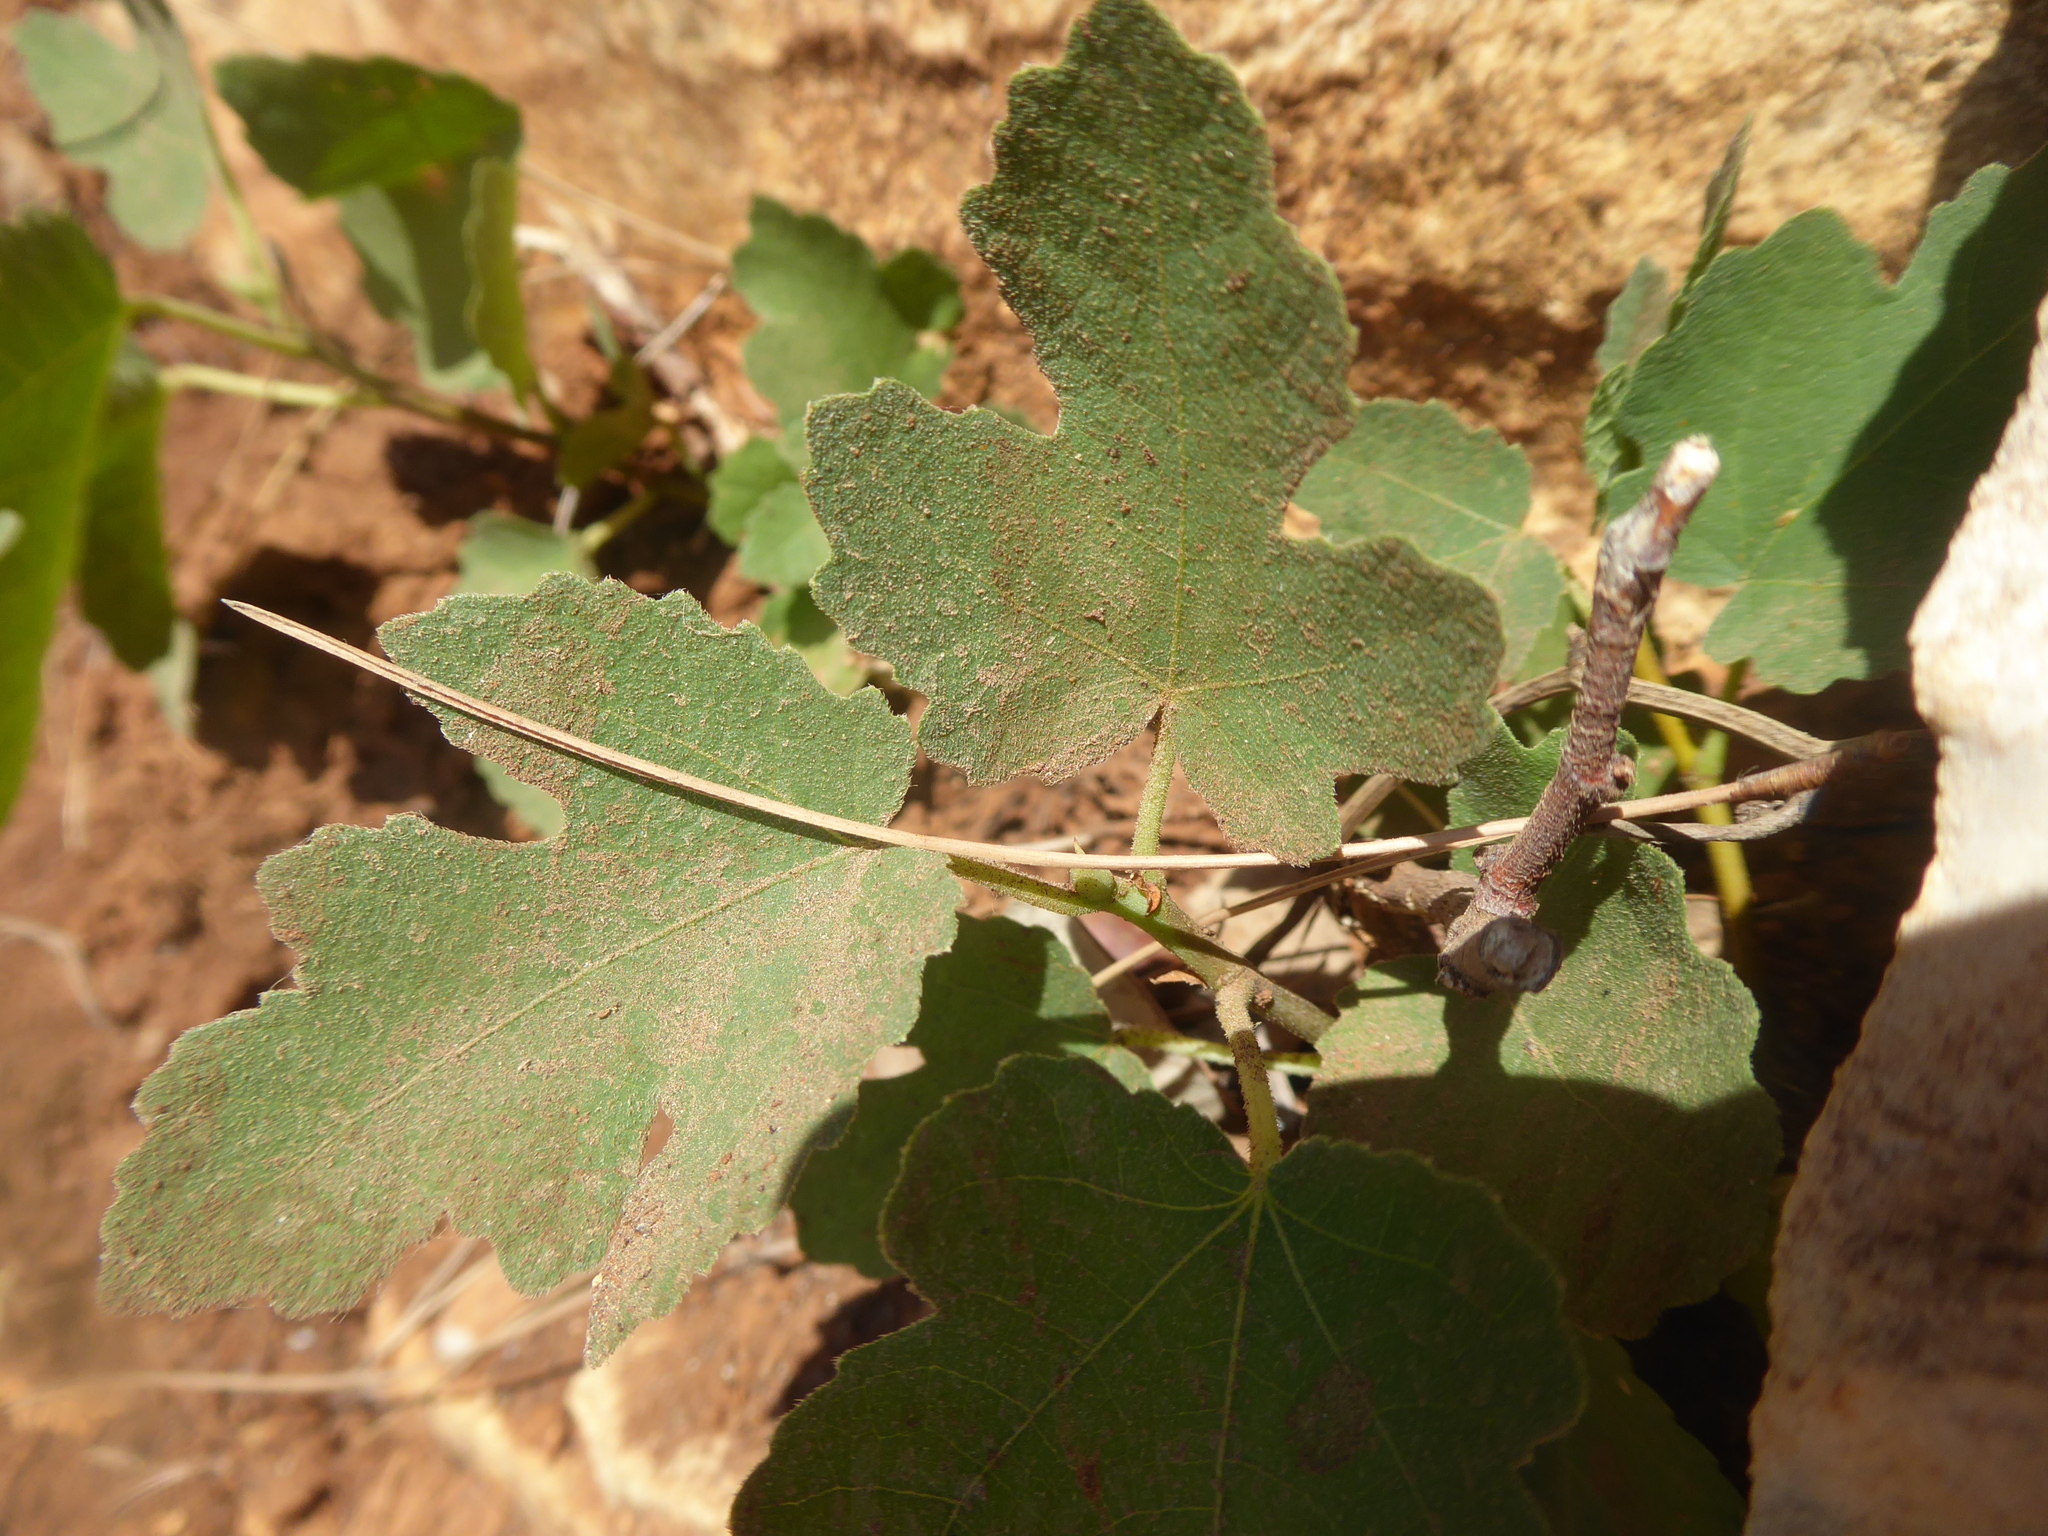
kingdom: Plantae
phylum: Tracheophyta
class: Magnoliopsida
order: Rosales
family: Moraceae
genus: Ficus
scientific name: Ficus carica
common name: Fig
